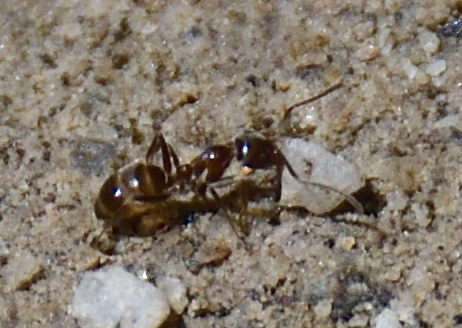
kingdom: Animalia
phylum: Arthropoda
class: Insecta
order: Hymenoptera
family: Formicidae
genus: Linepithema
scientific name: Linepithema humile
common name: Argentine ant
